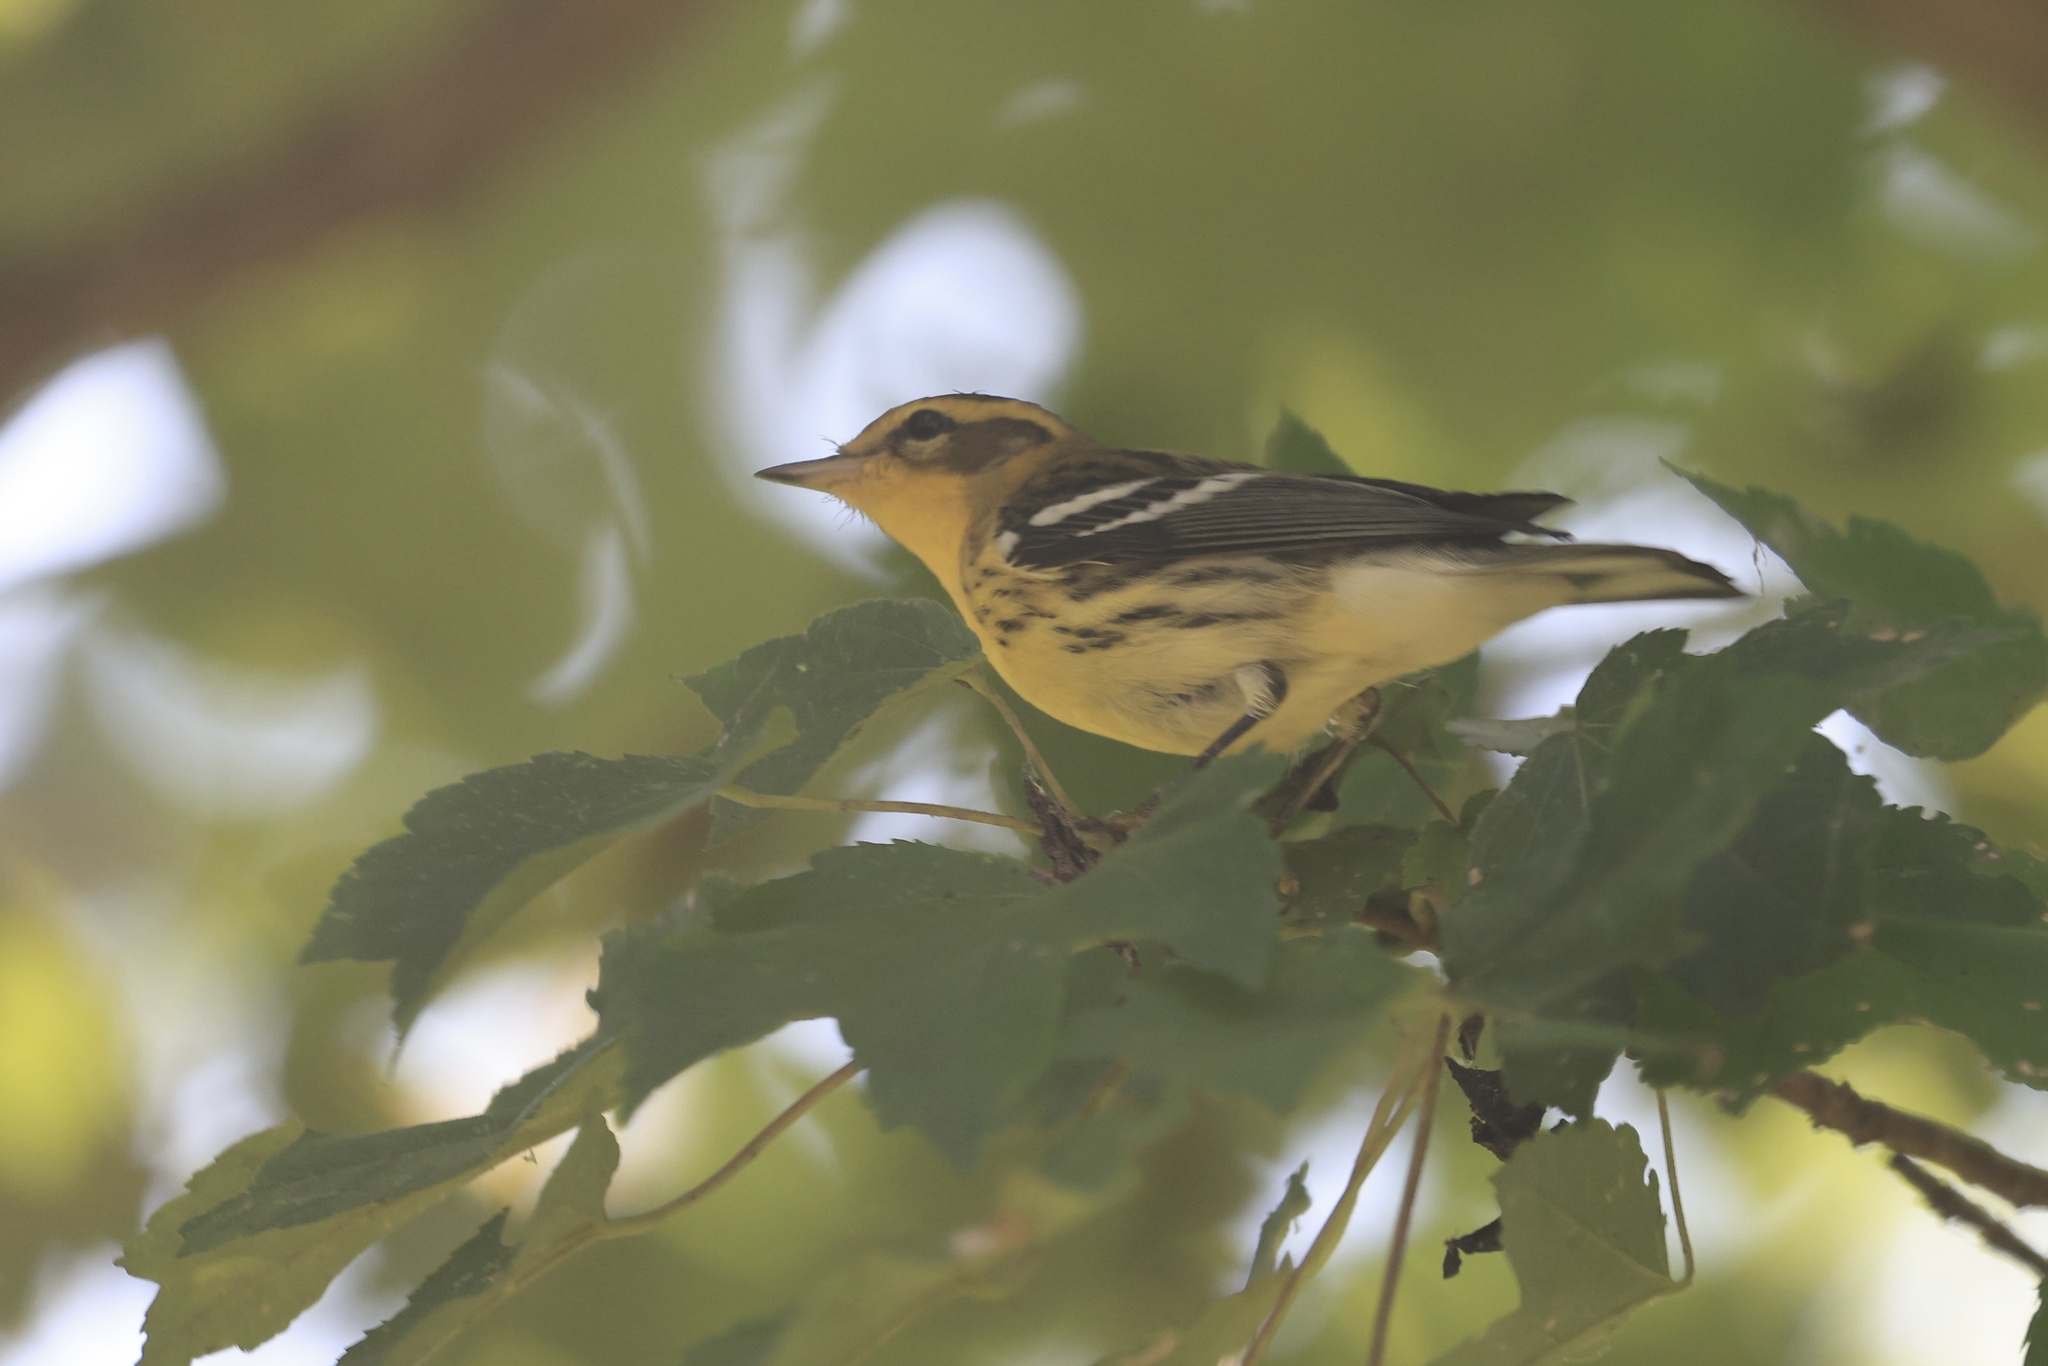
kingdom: Animalia
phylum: Chordata
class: Aves
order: Passeriformes
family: Parulidae
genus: Setophaga
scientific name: Setophaga fusca
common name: Blackburnian warbler
